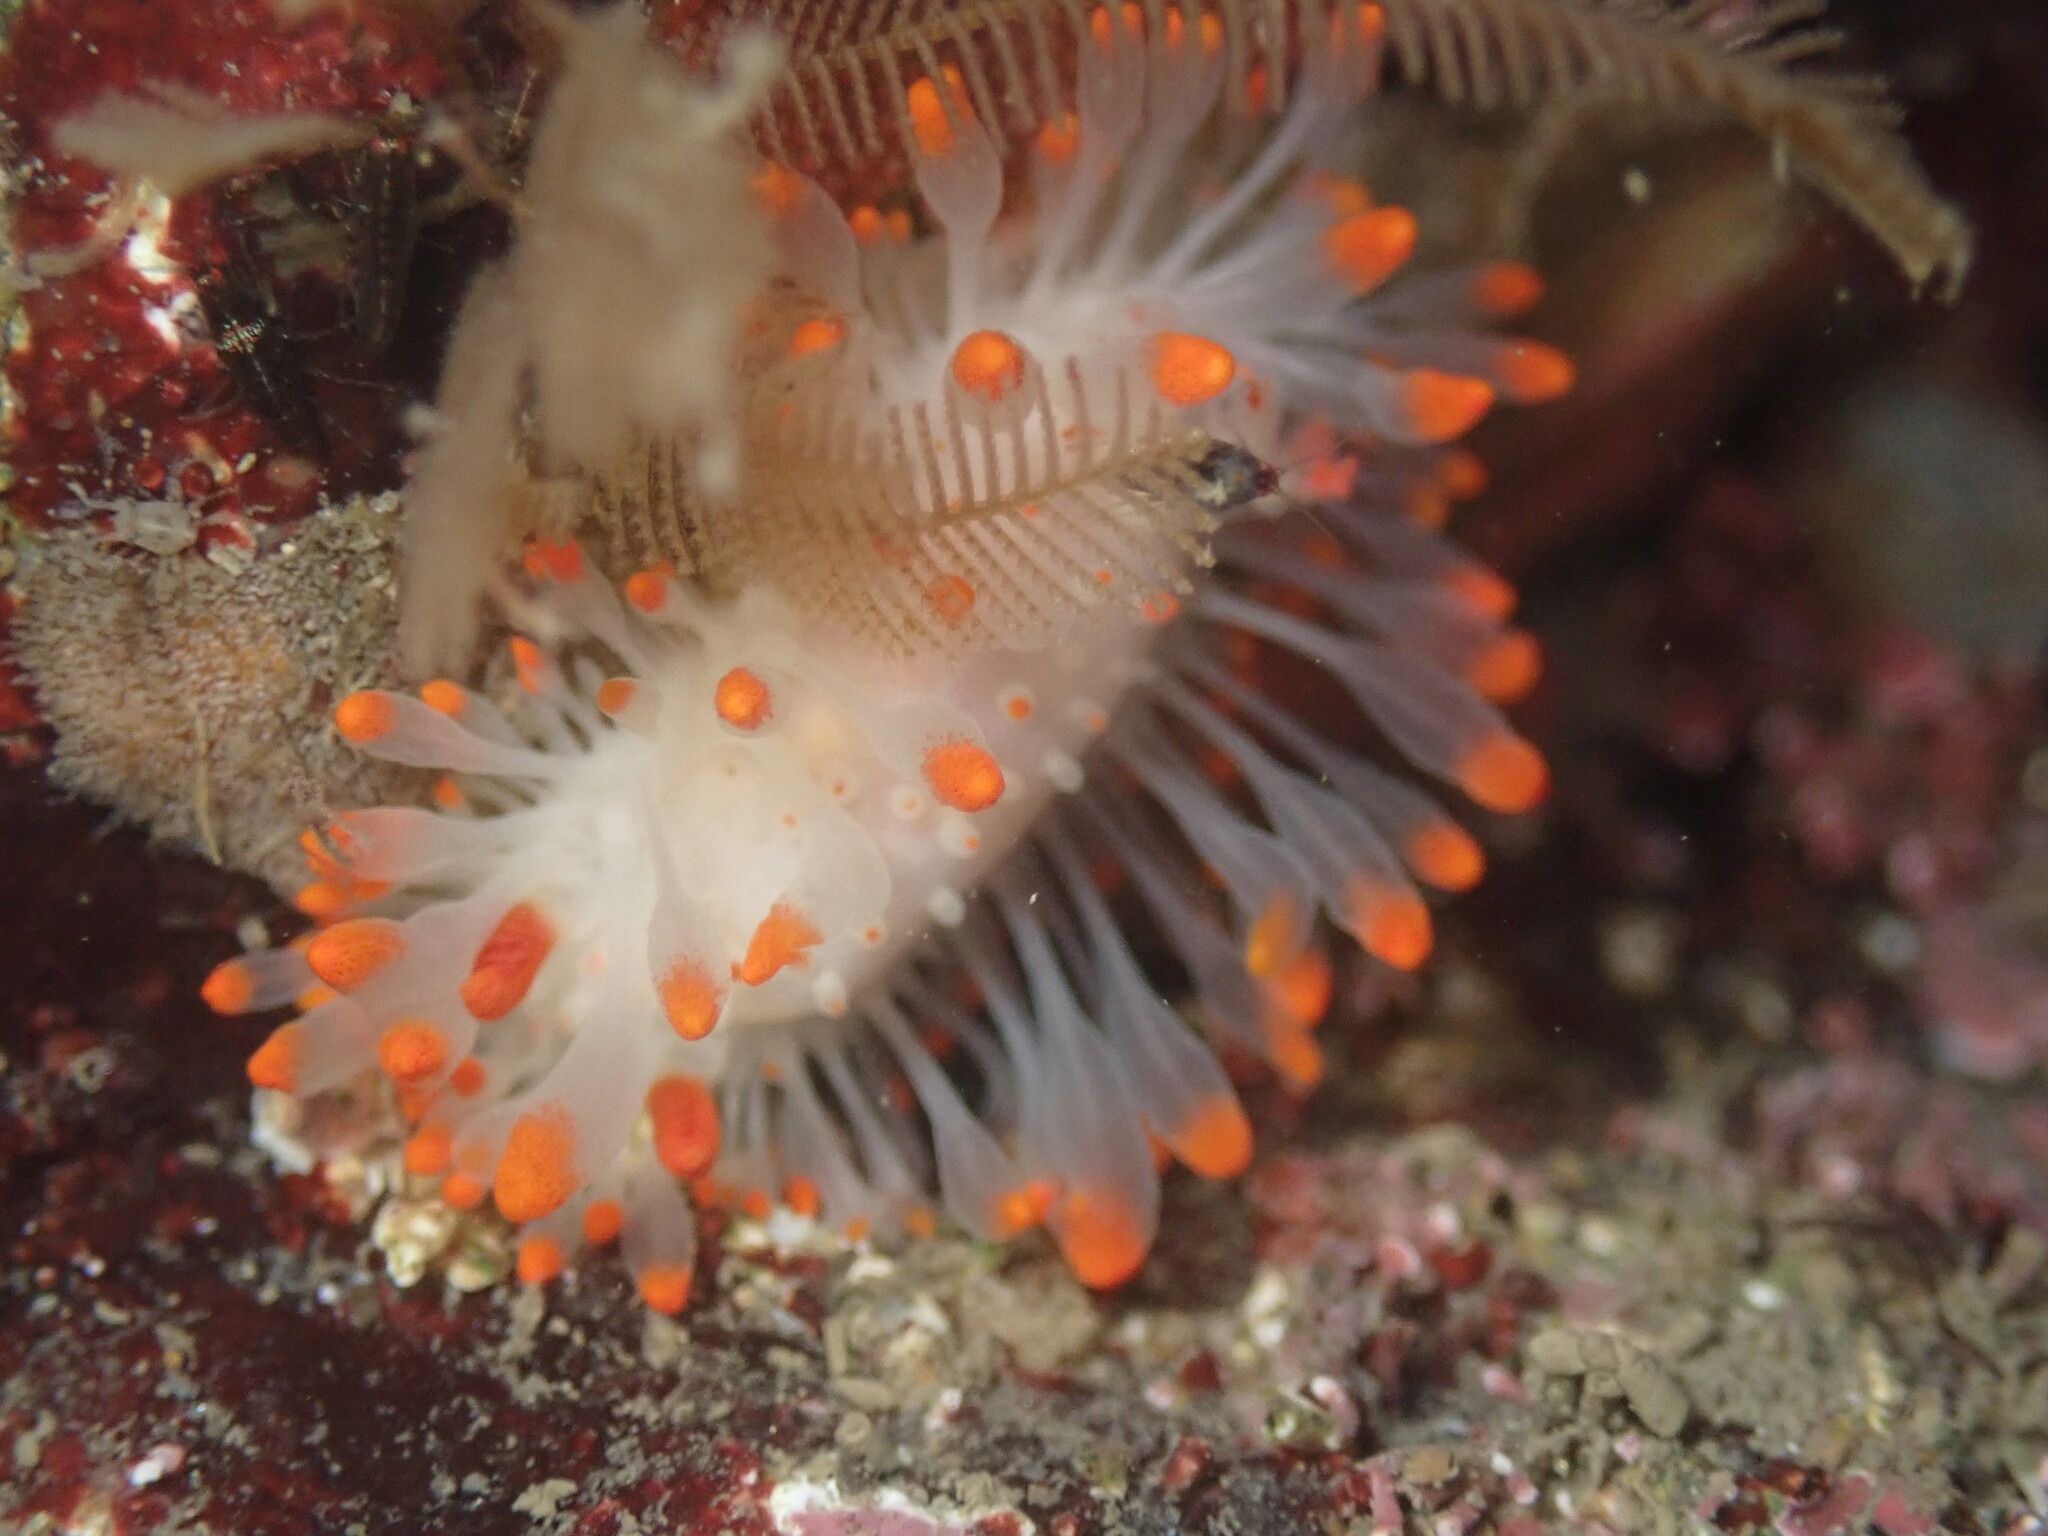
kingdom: Animalia
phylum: Mollusca
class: Gastropoda
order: Nudibranchia
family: Polyceridae
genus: Limacia
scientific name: Limacia cockerelli
